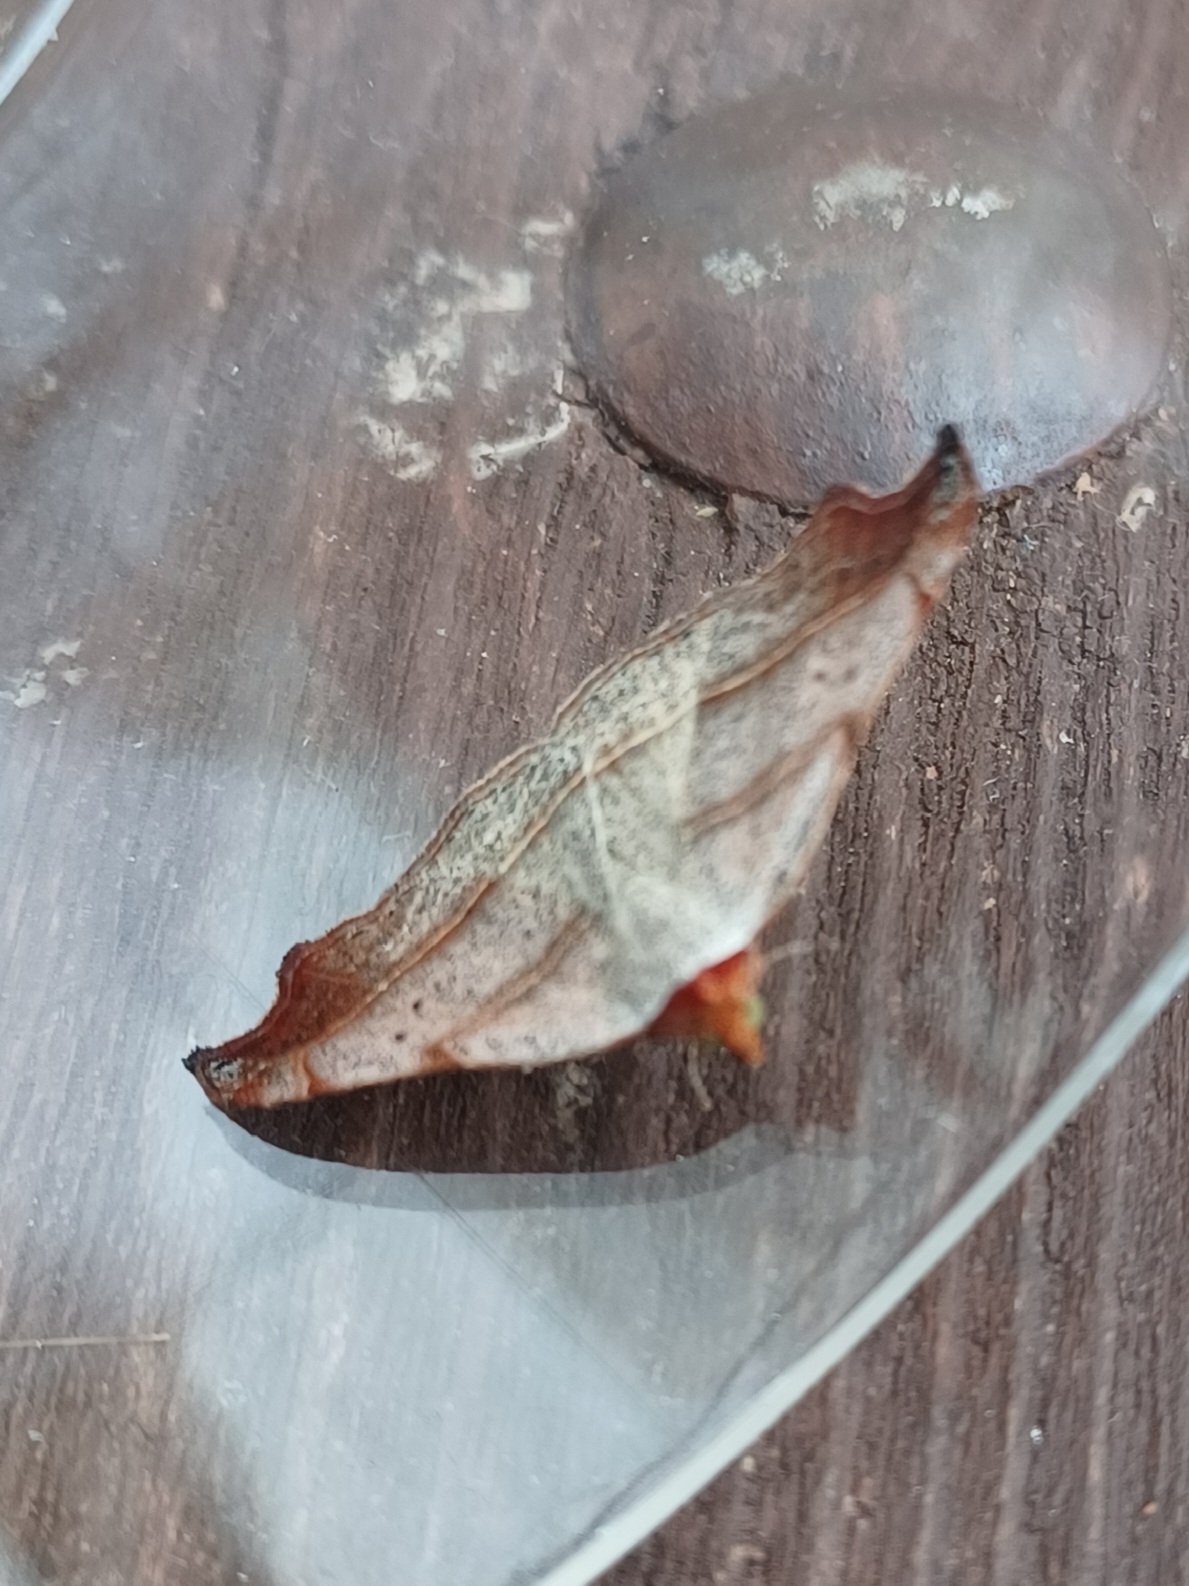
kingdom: Animalia
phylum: Arthropoda
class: Insecta
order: Lepidoptera
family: Erebidae
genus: Laspeyria
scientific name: Laspeyria flexula
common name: Beautiful hook-tip
